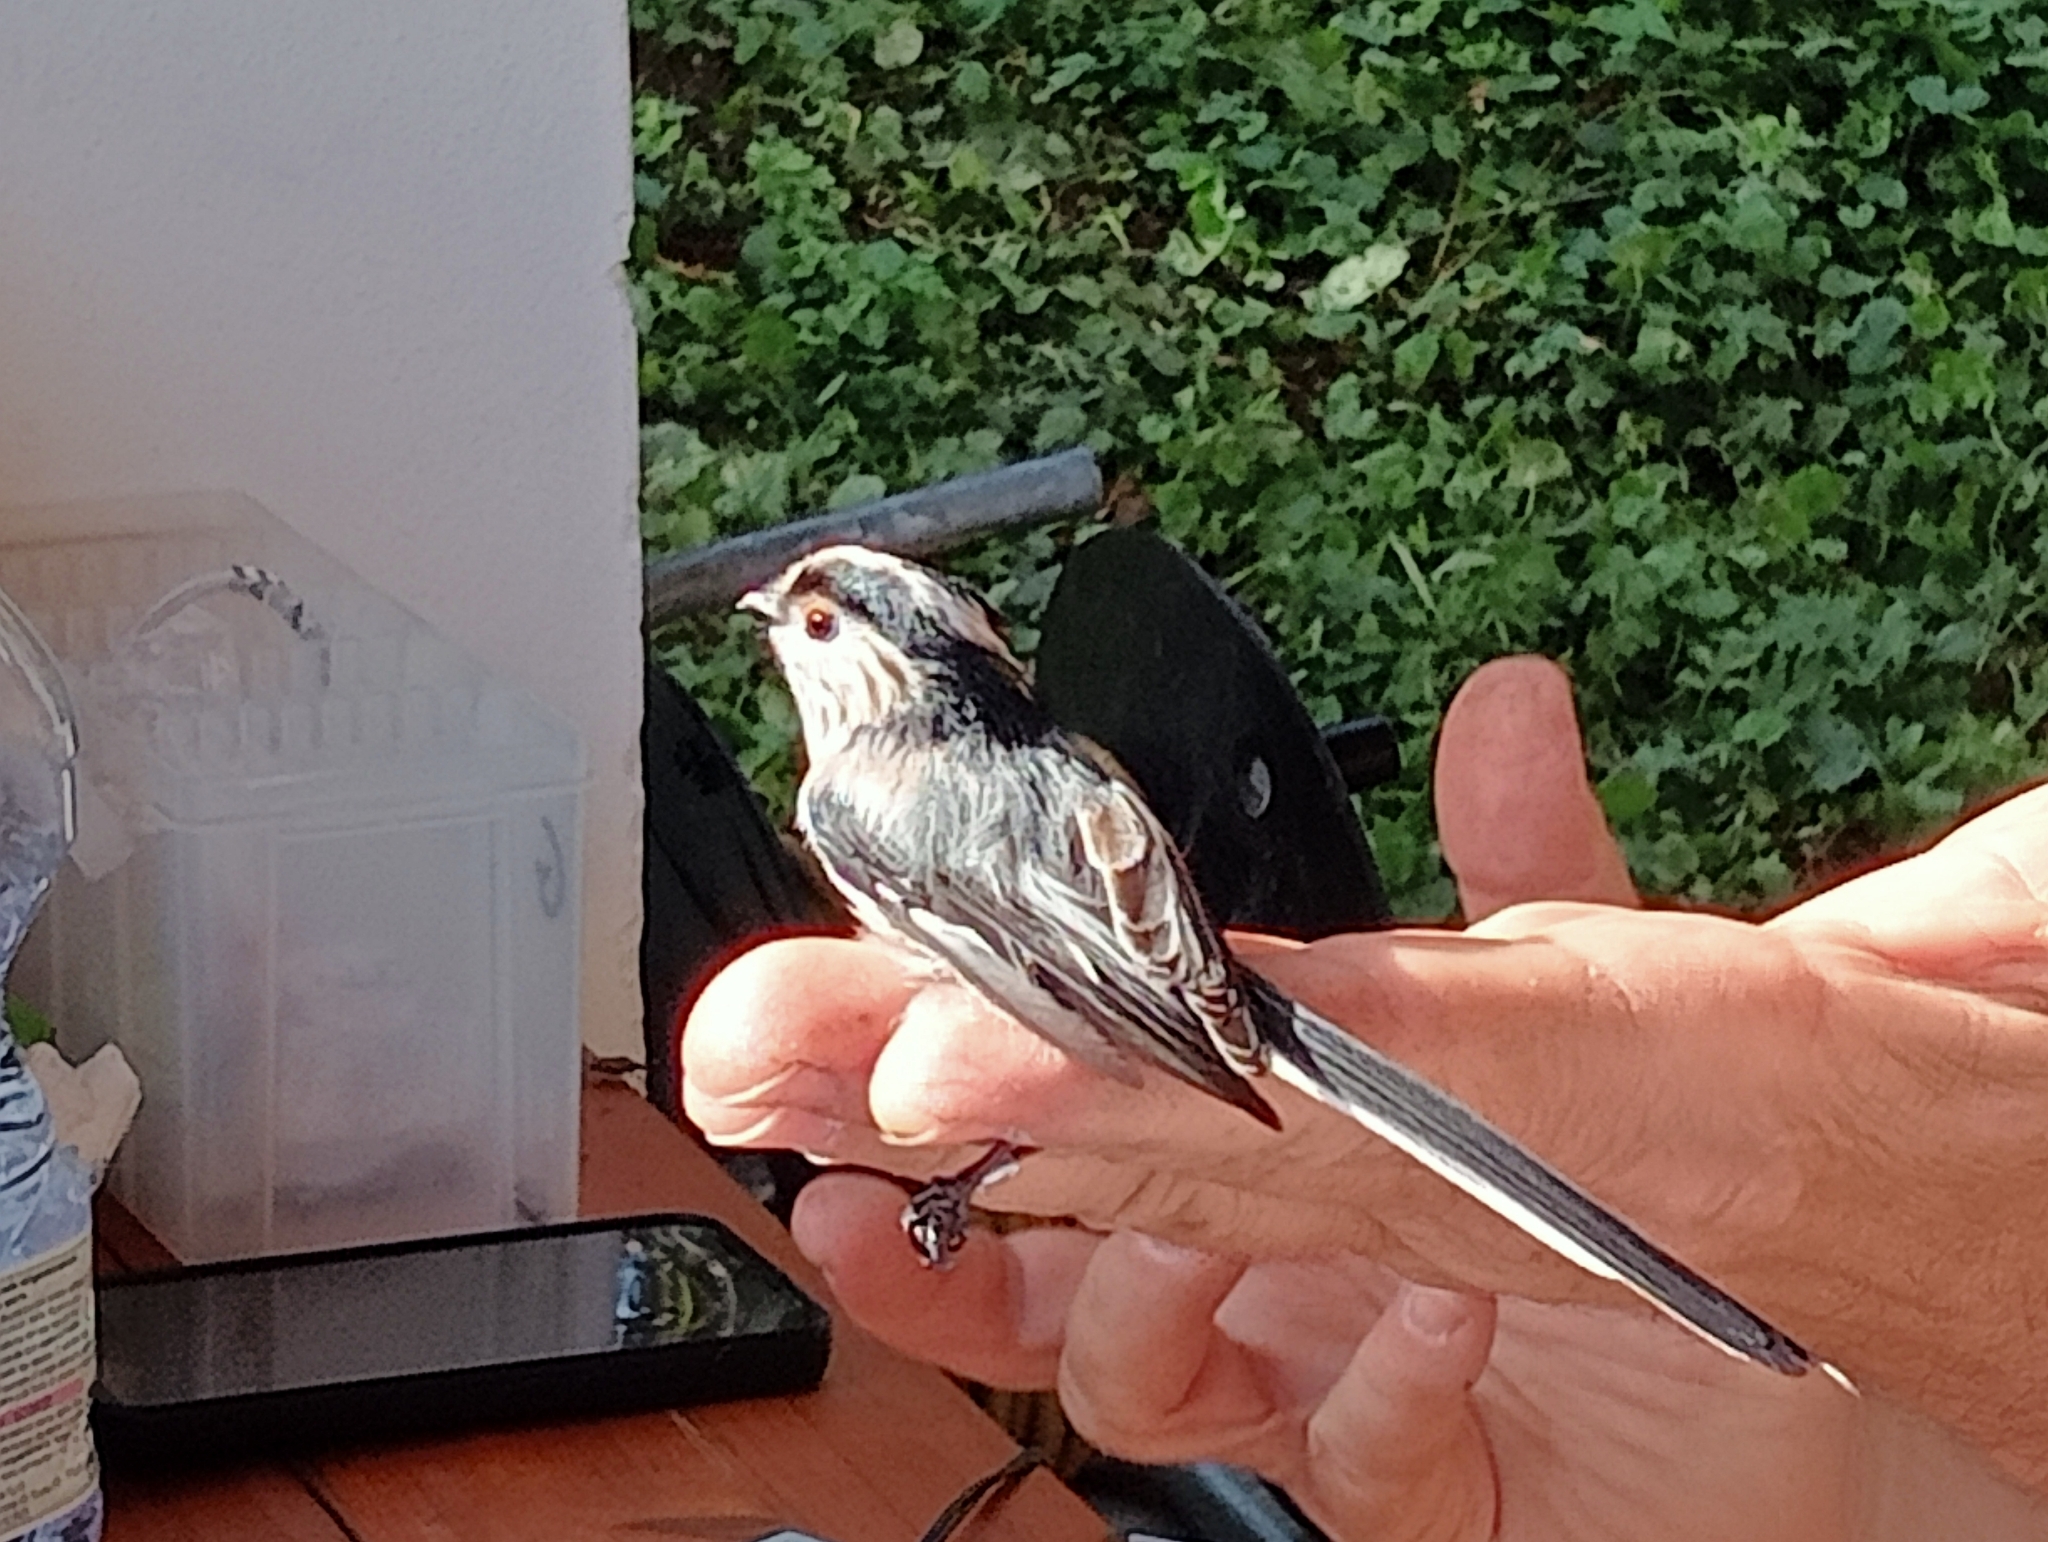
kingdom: Animalia
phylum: Chordata
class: Aves
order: Passeriformes
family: Aegithalidae
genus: Aegithalos
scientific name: Aegithalos caudatus
